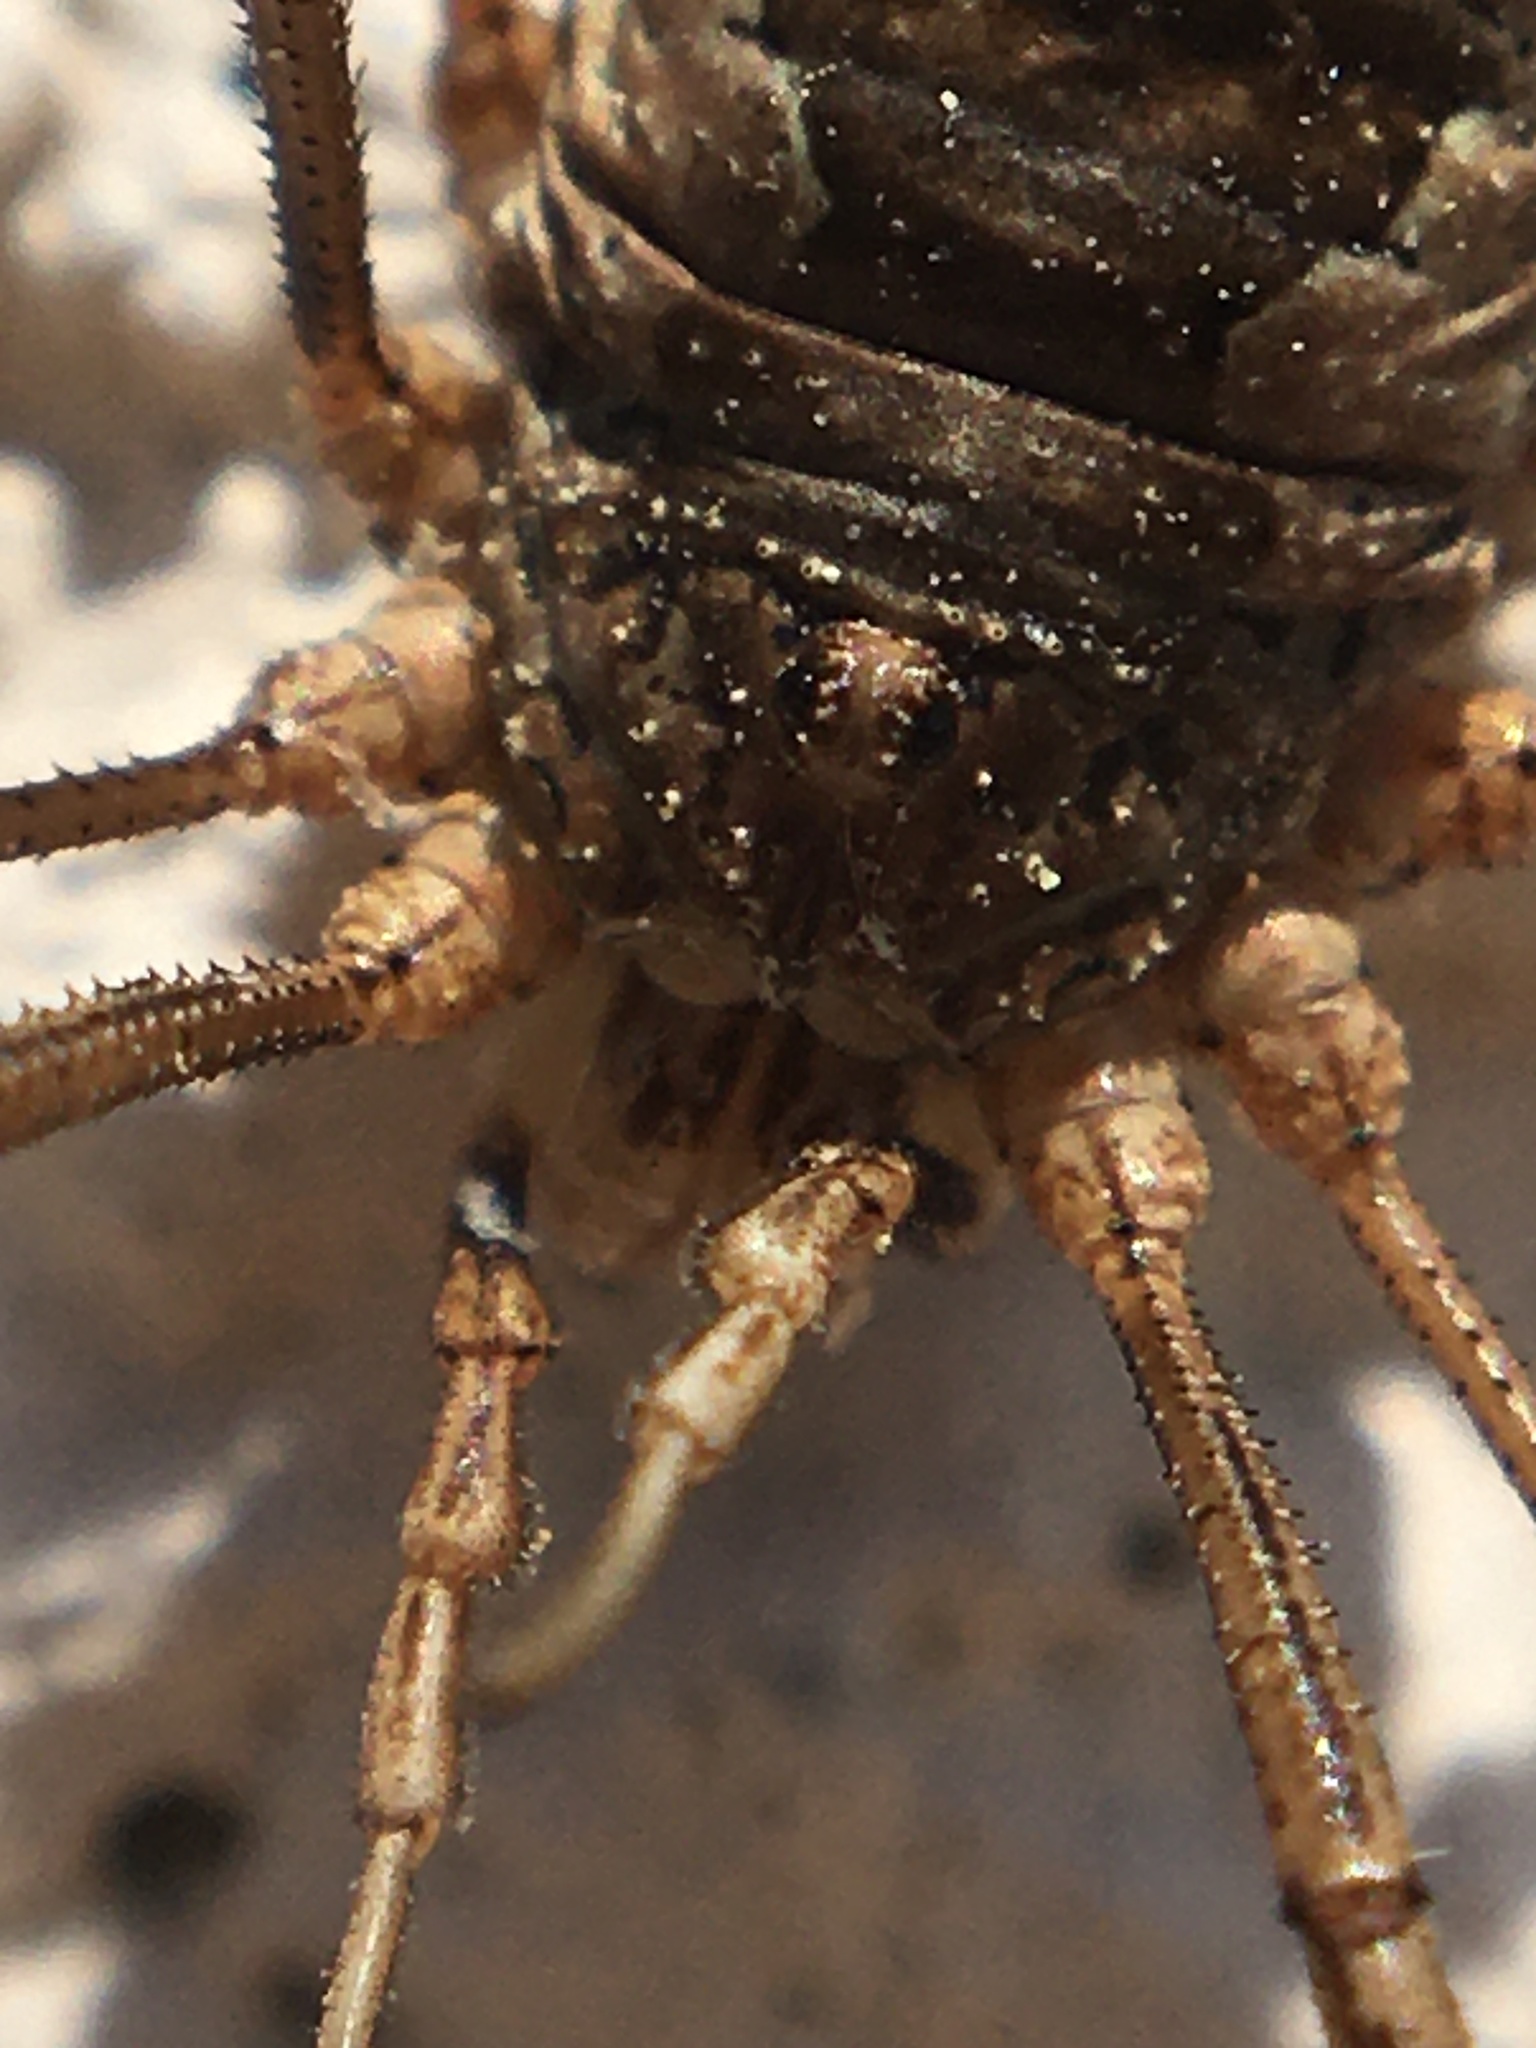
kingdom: Animalia
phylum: Arthropoda
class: Arachnida
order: Opiliones
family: Phalangiidae
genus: Phalangium
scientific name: Phalangium opilio
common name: Daddy longleg
